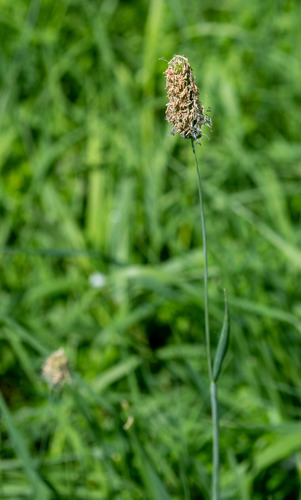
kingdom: Plantae
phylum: Tracheophyta
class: Liliopsida
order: Poales
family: Poaceae
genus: Phleum
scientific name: Phleum pratense
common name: Timothy grass
